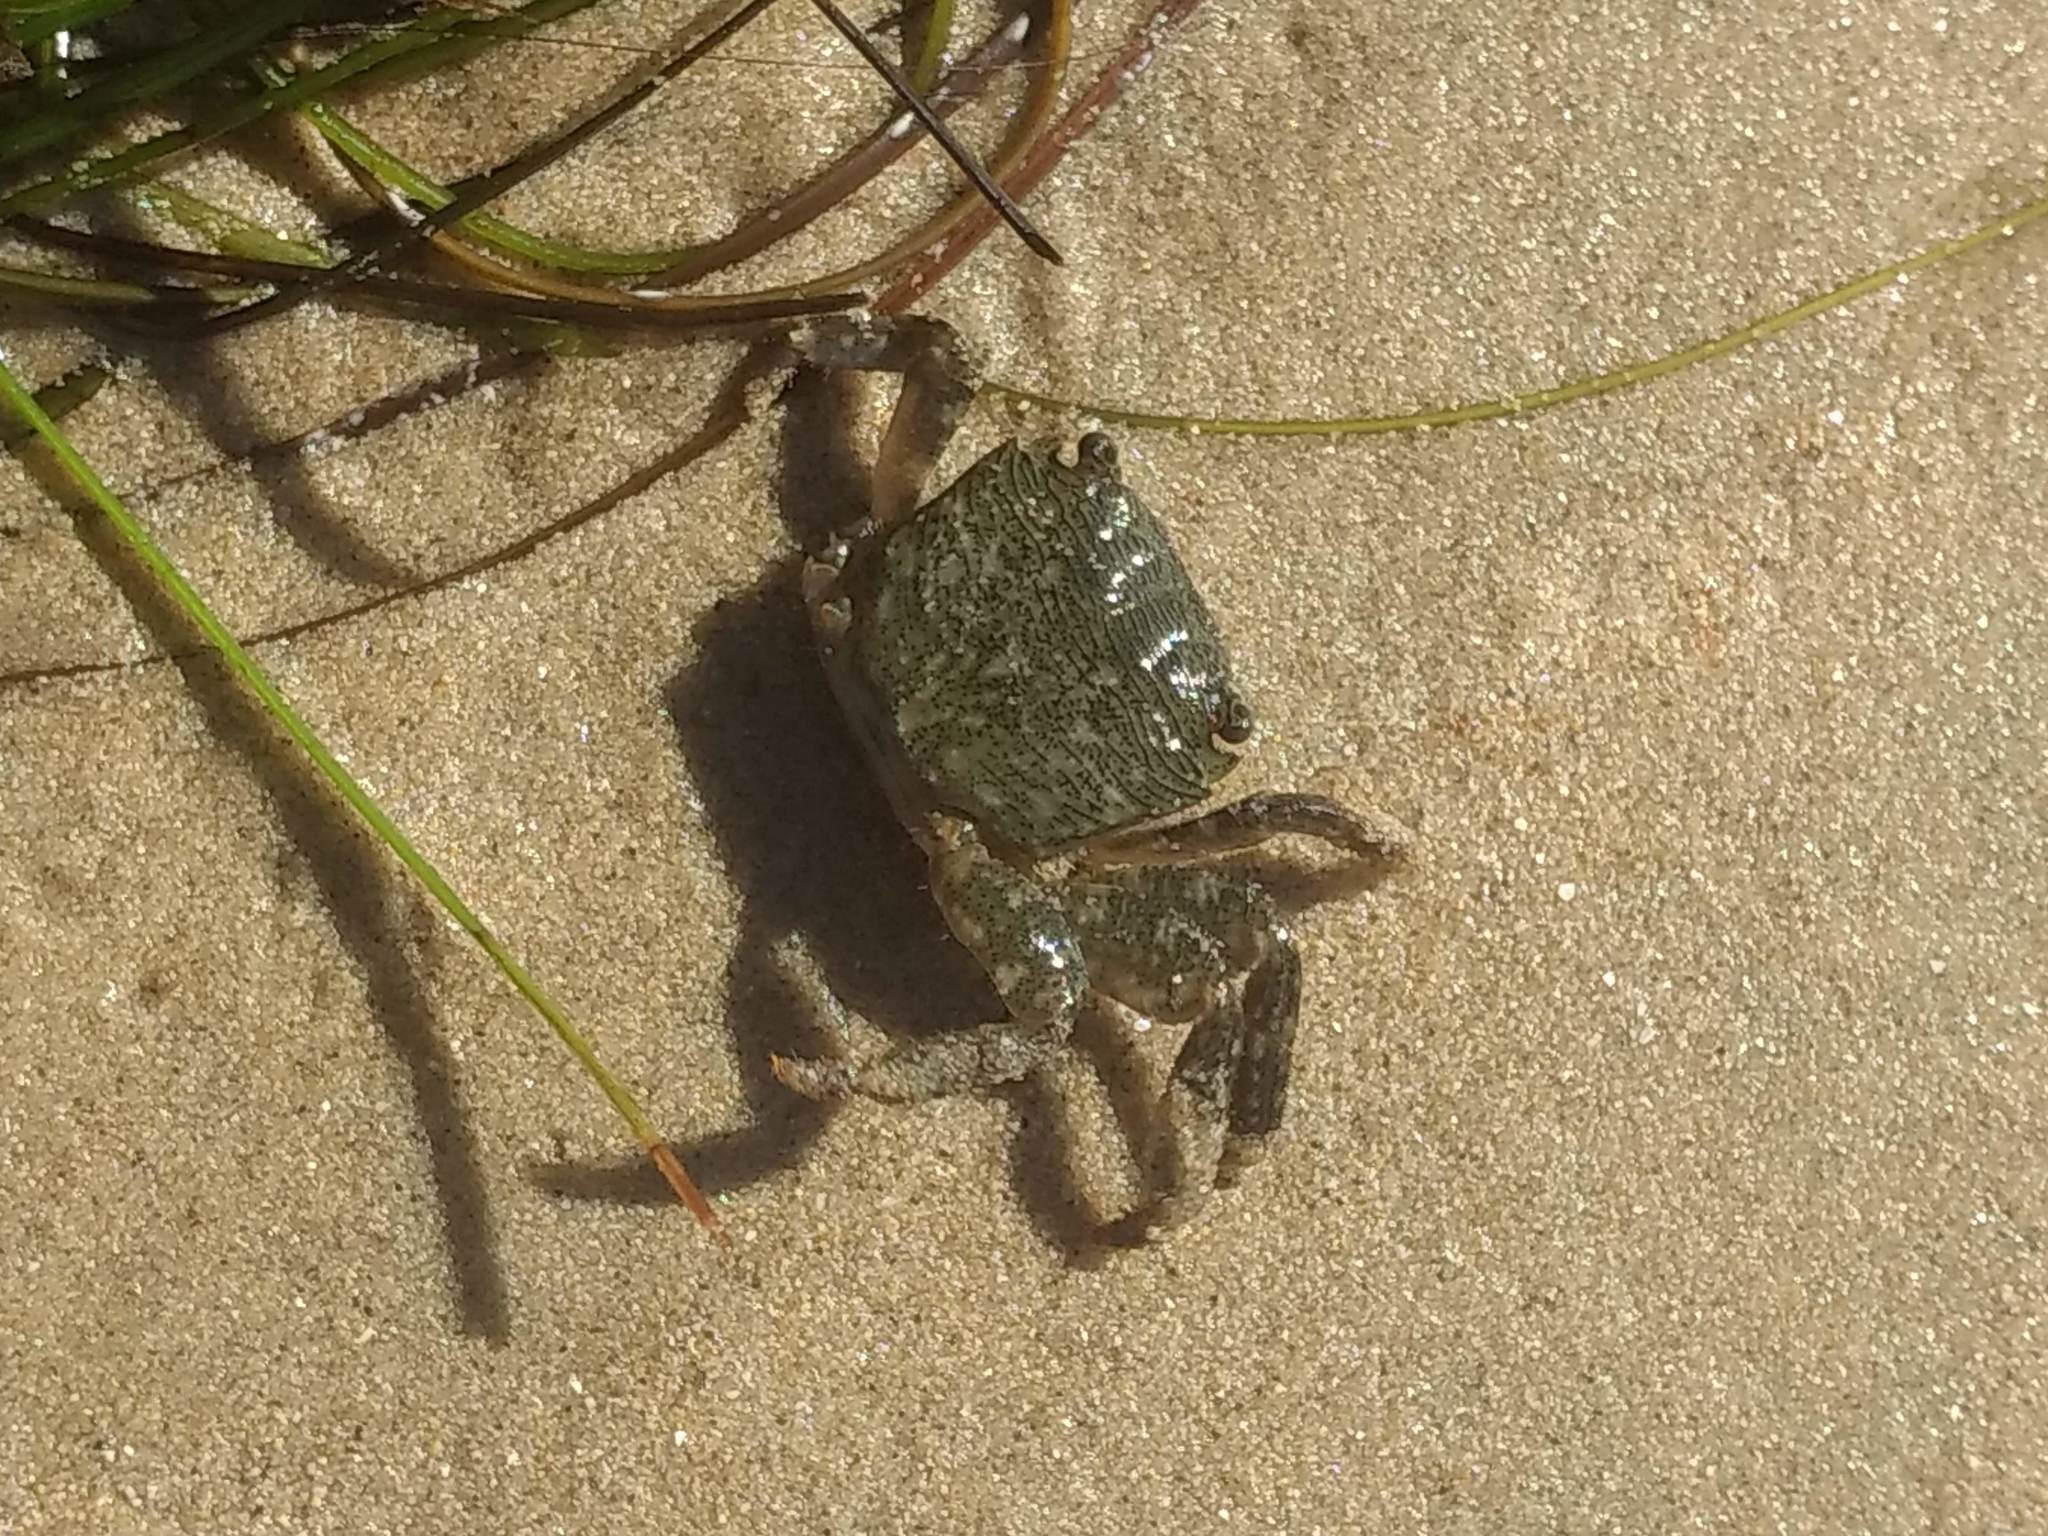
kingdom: Animalia
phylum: Arthropoda
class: Malacostraca
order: Decapoda
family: Grapsidae
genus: Pachygrapsus
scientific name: Pachygrapsus crassipes
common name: Striped shore crab
